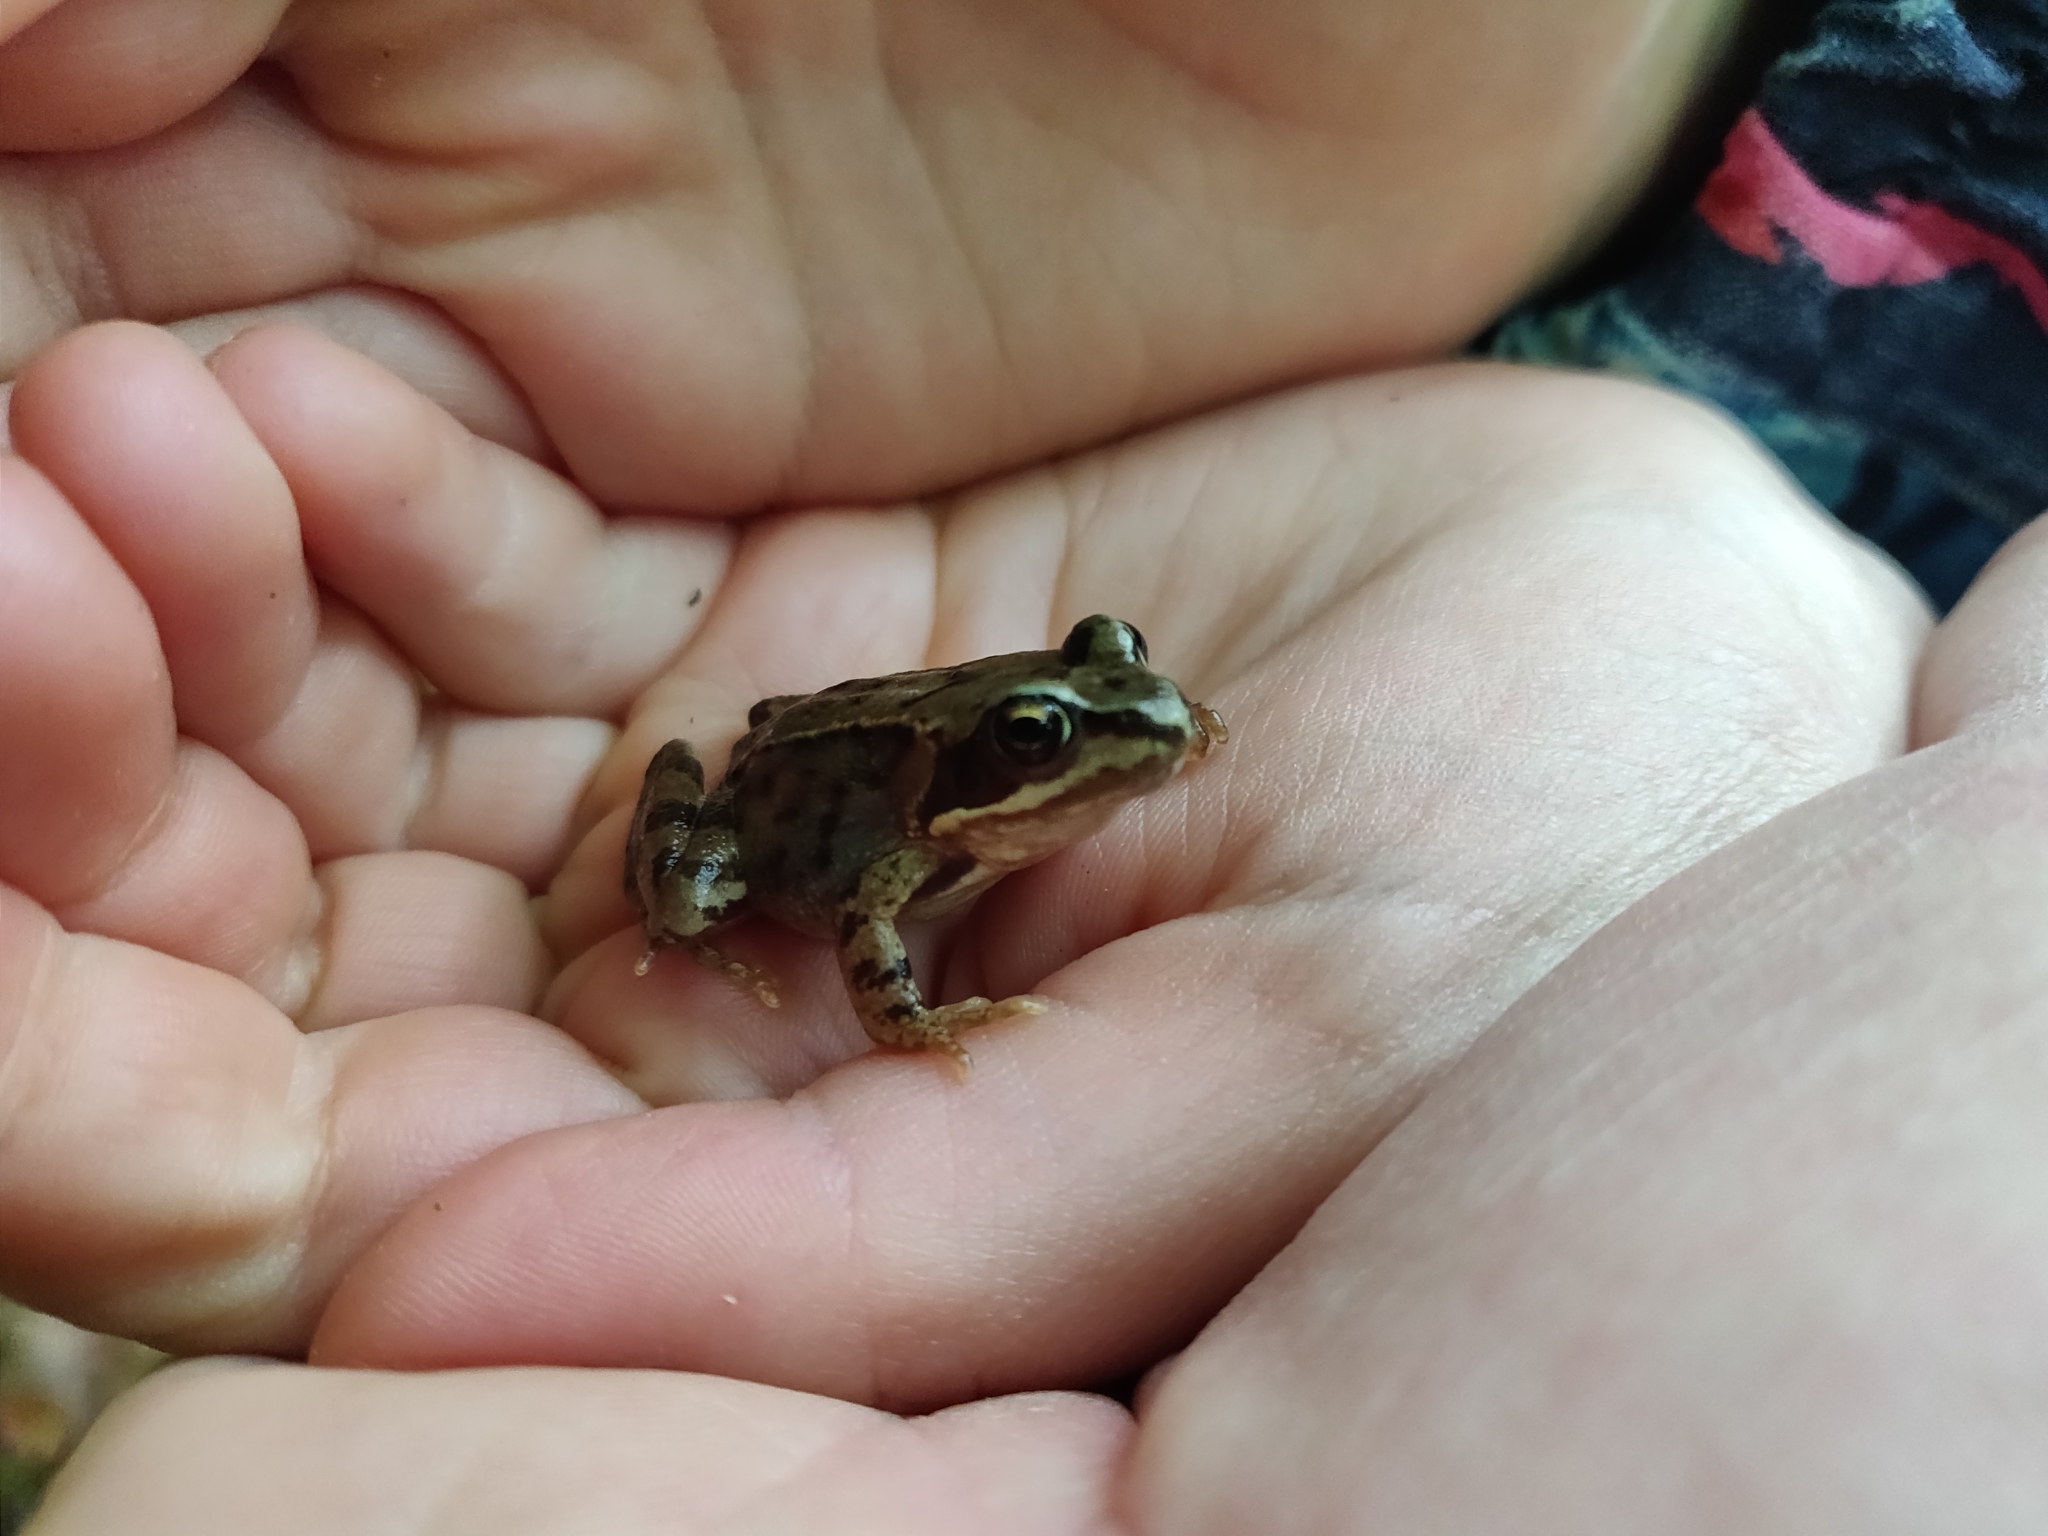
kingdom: Animalia
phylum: Chordata
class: Amphibia
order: Anura
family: Ranidae
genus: Rana
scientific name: Rana temporaria
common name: Common frog
